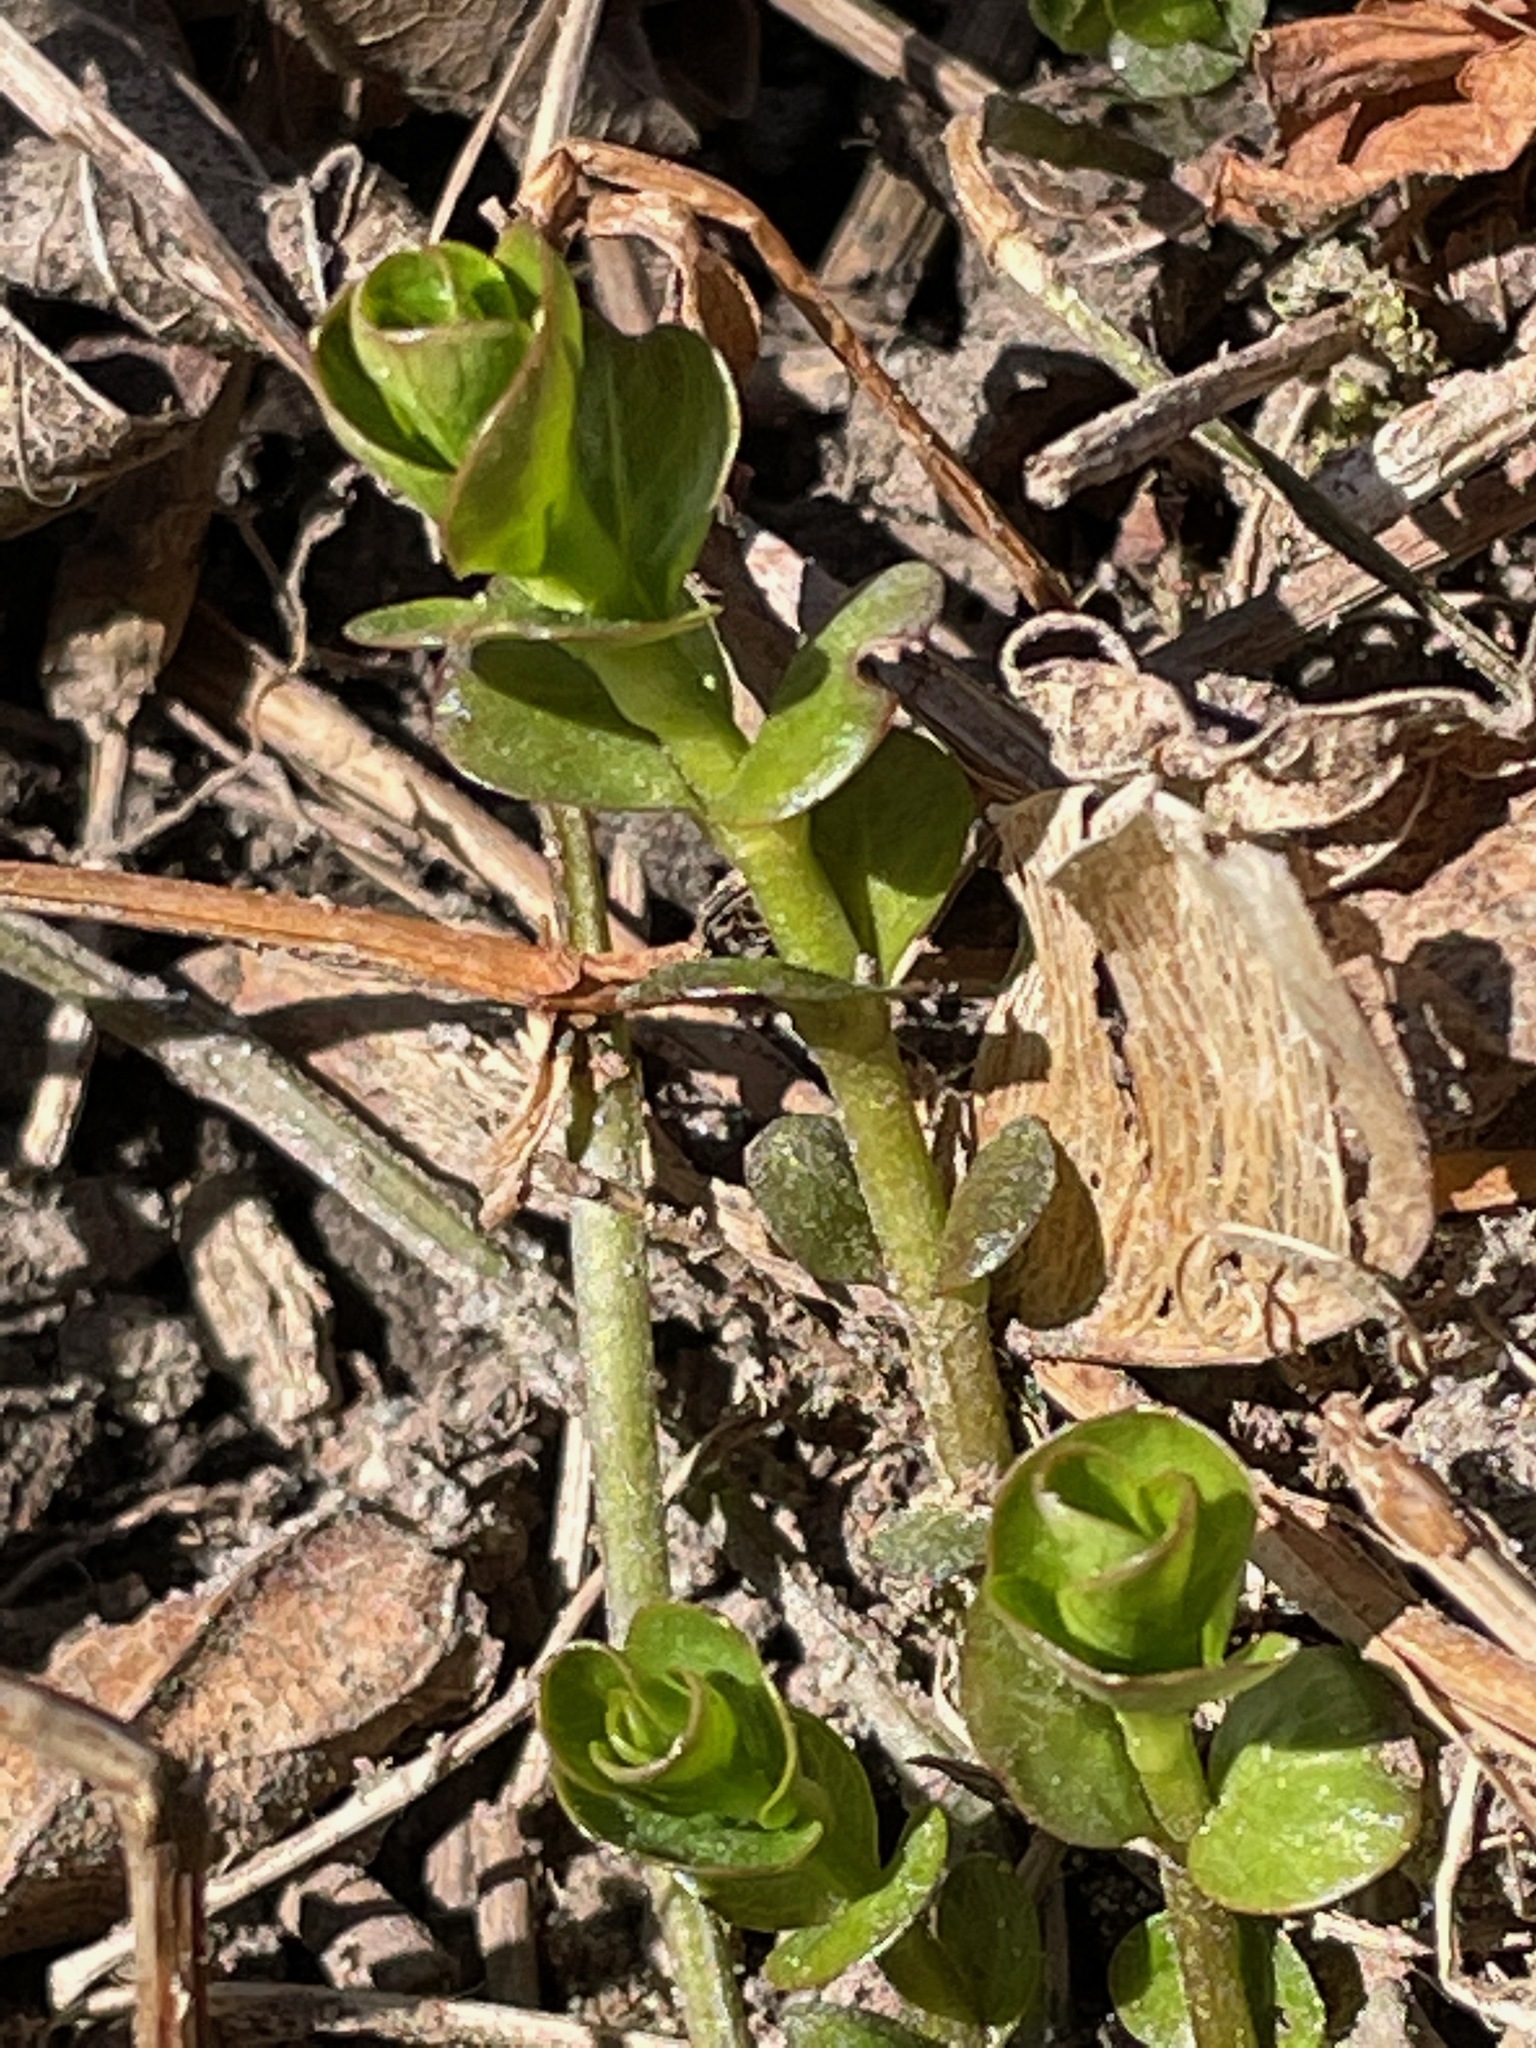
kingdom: Plantae
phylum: Tracheophyta
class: Magnoliopsida
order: Ericales
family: Primulaceae
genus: Lysimachia
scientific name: Lysimachia nummularia
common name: Moneywort
